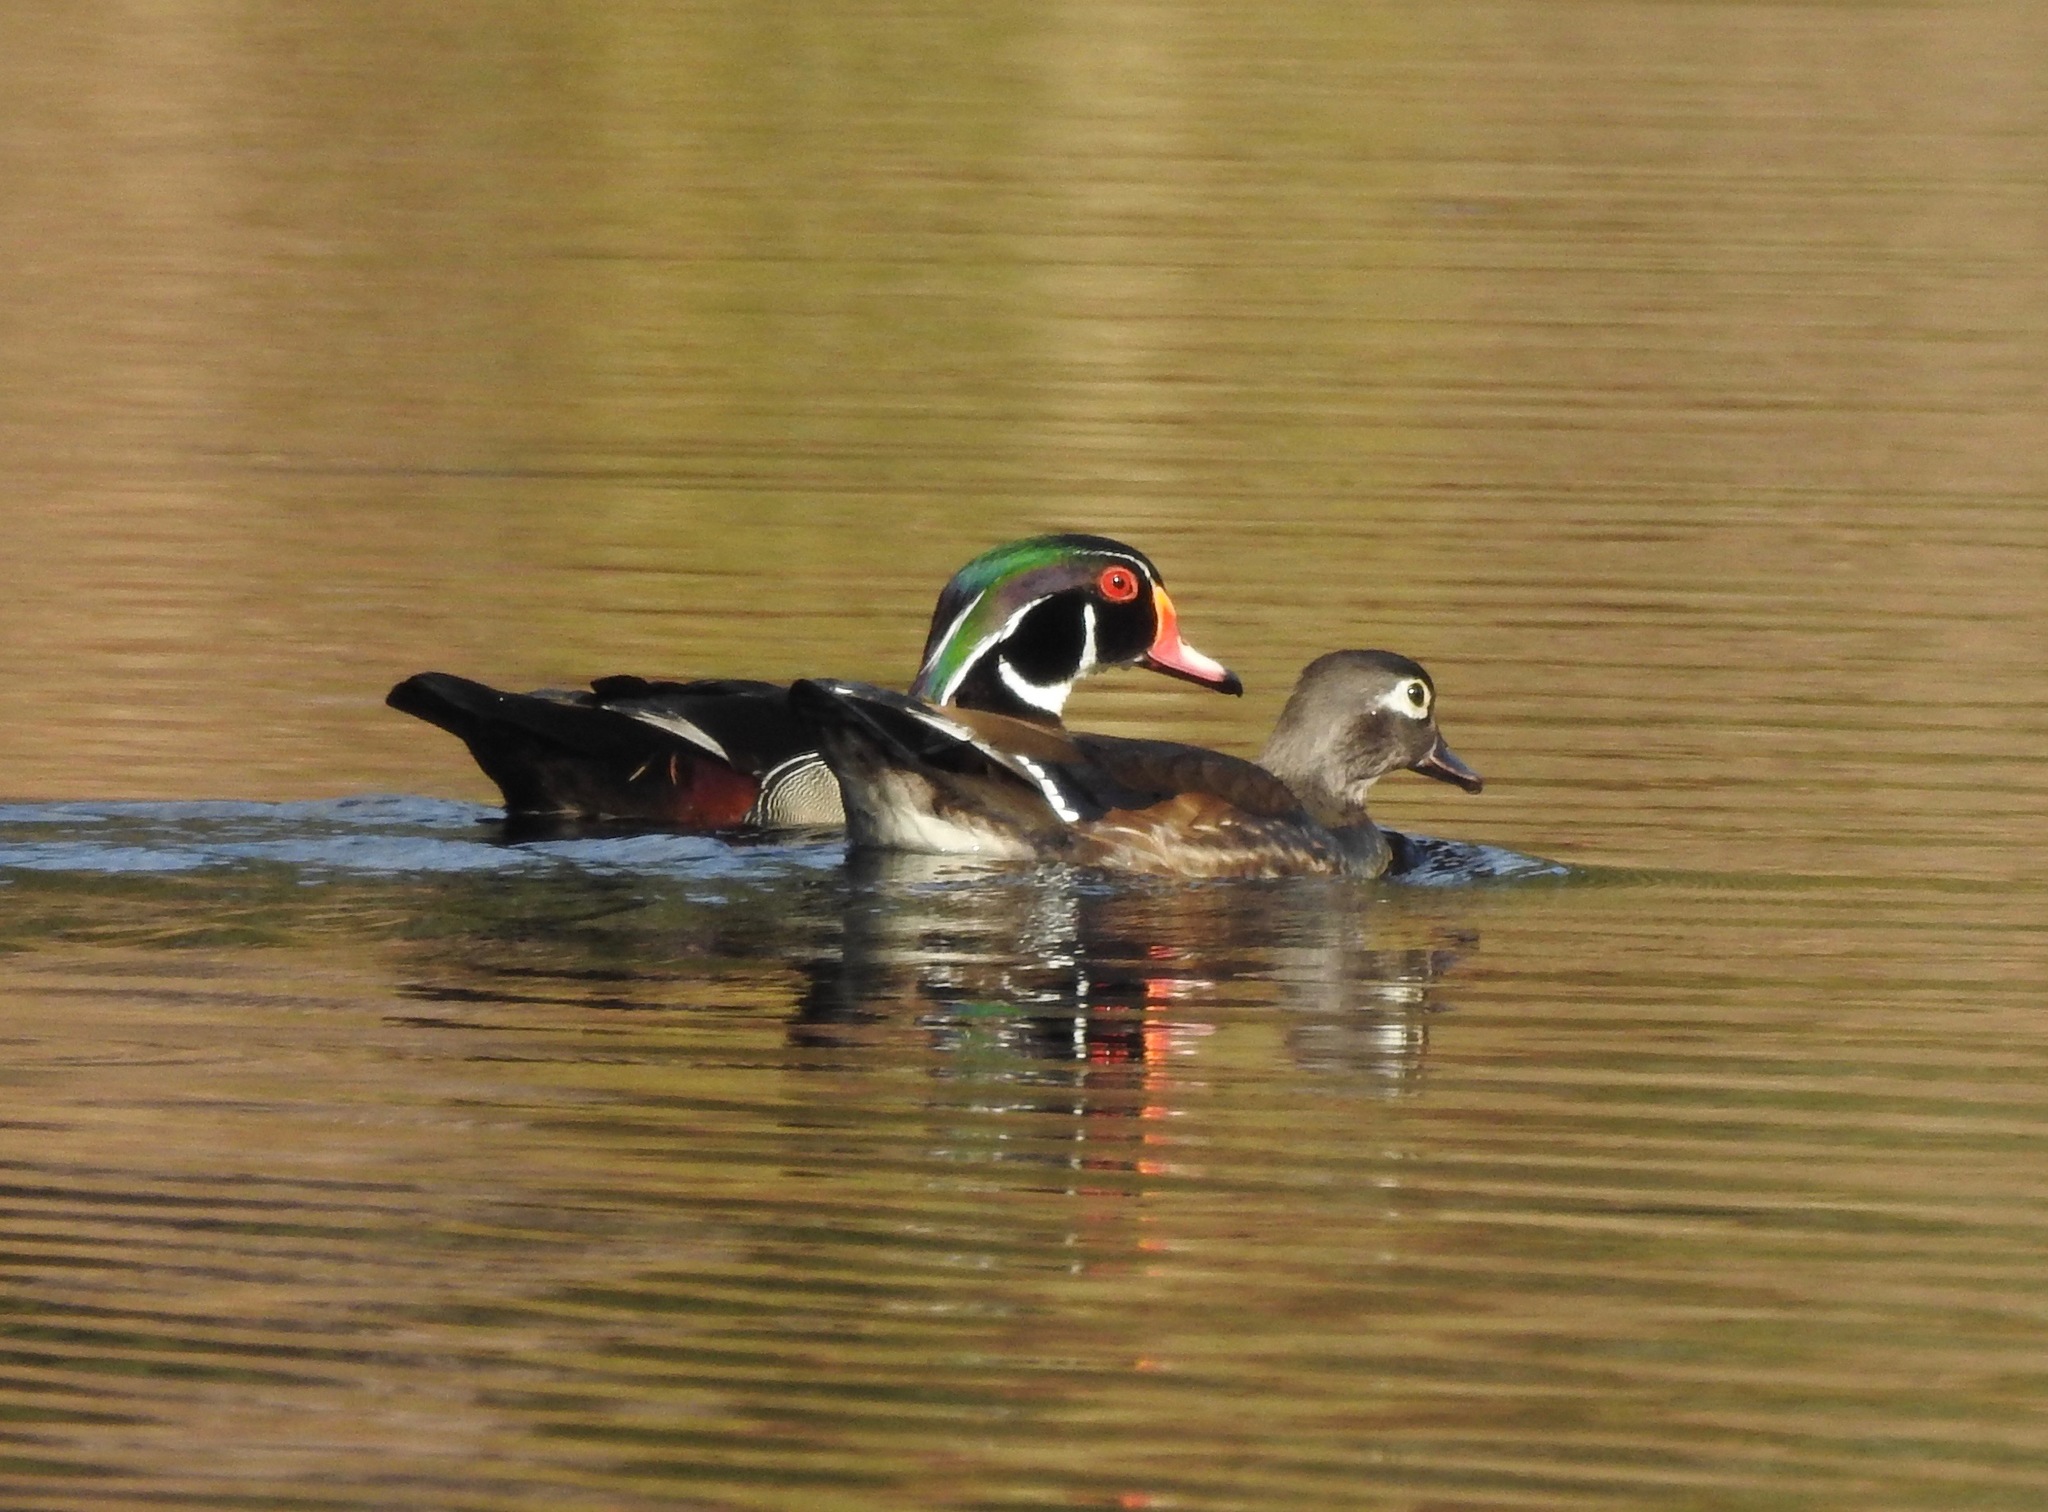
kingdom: Animalia
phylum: Chordata
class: Aves
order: Anseriformes
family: Anatidae
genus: Aix
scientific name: Aix sponsa
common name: Wood duck
